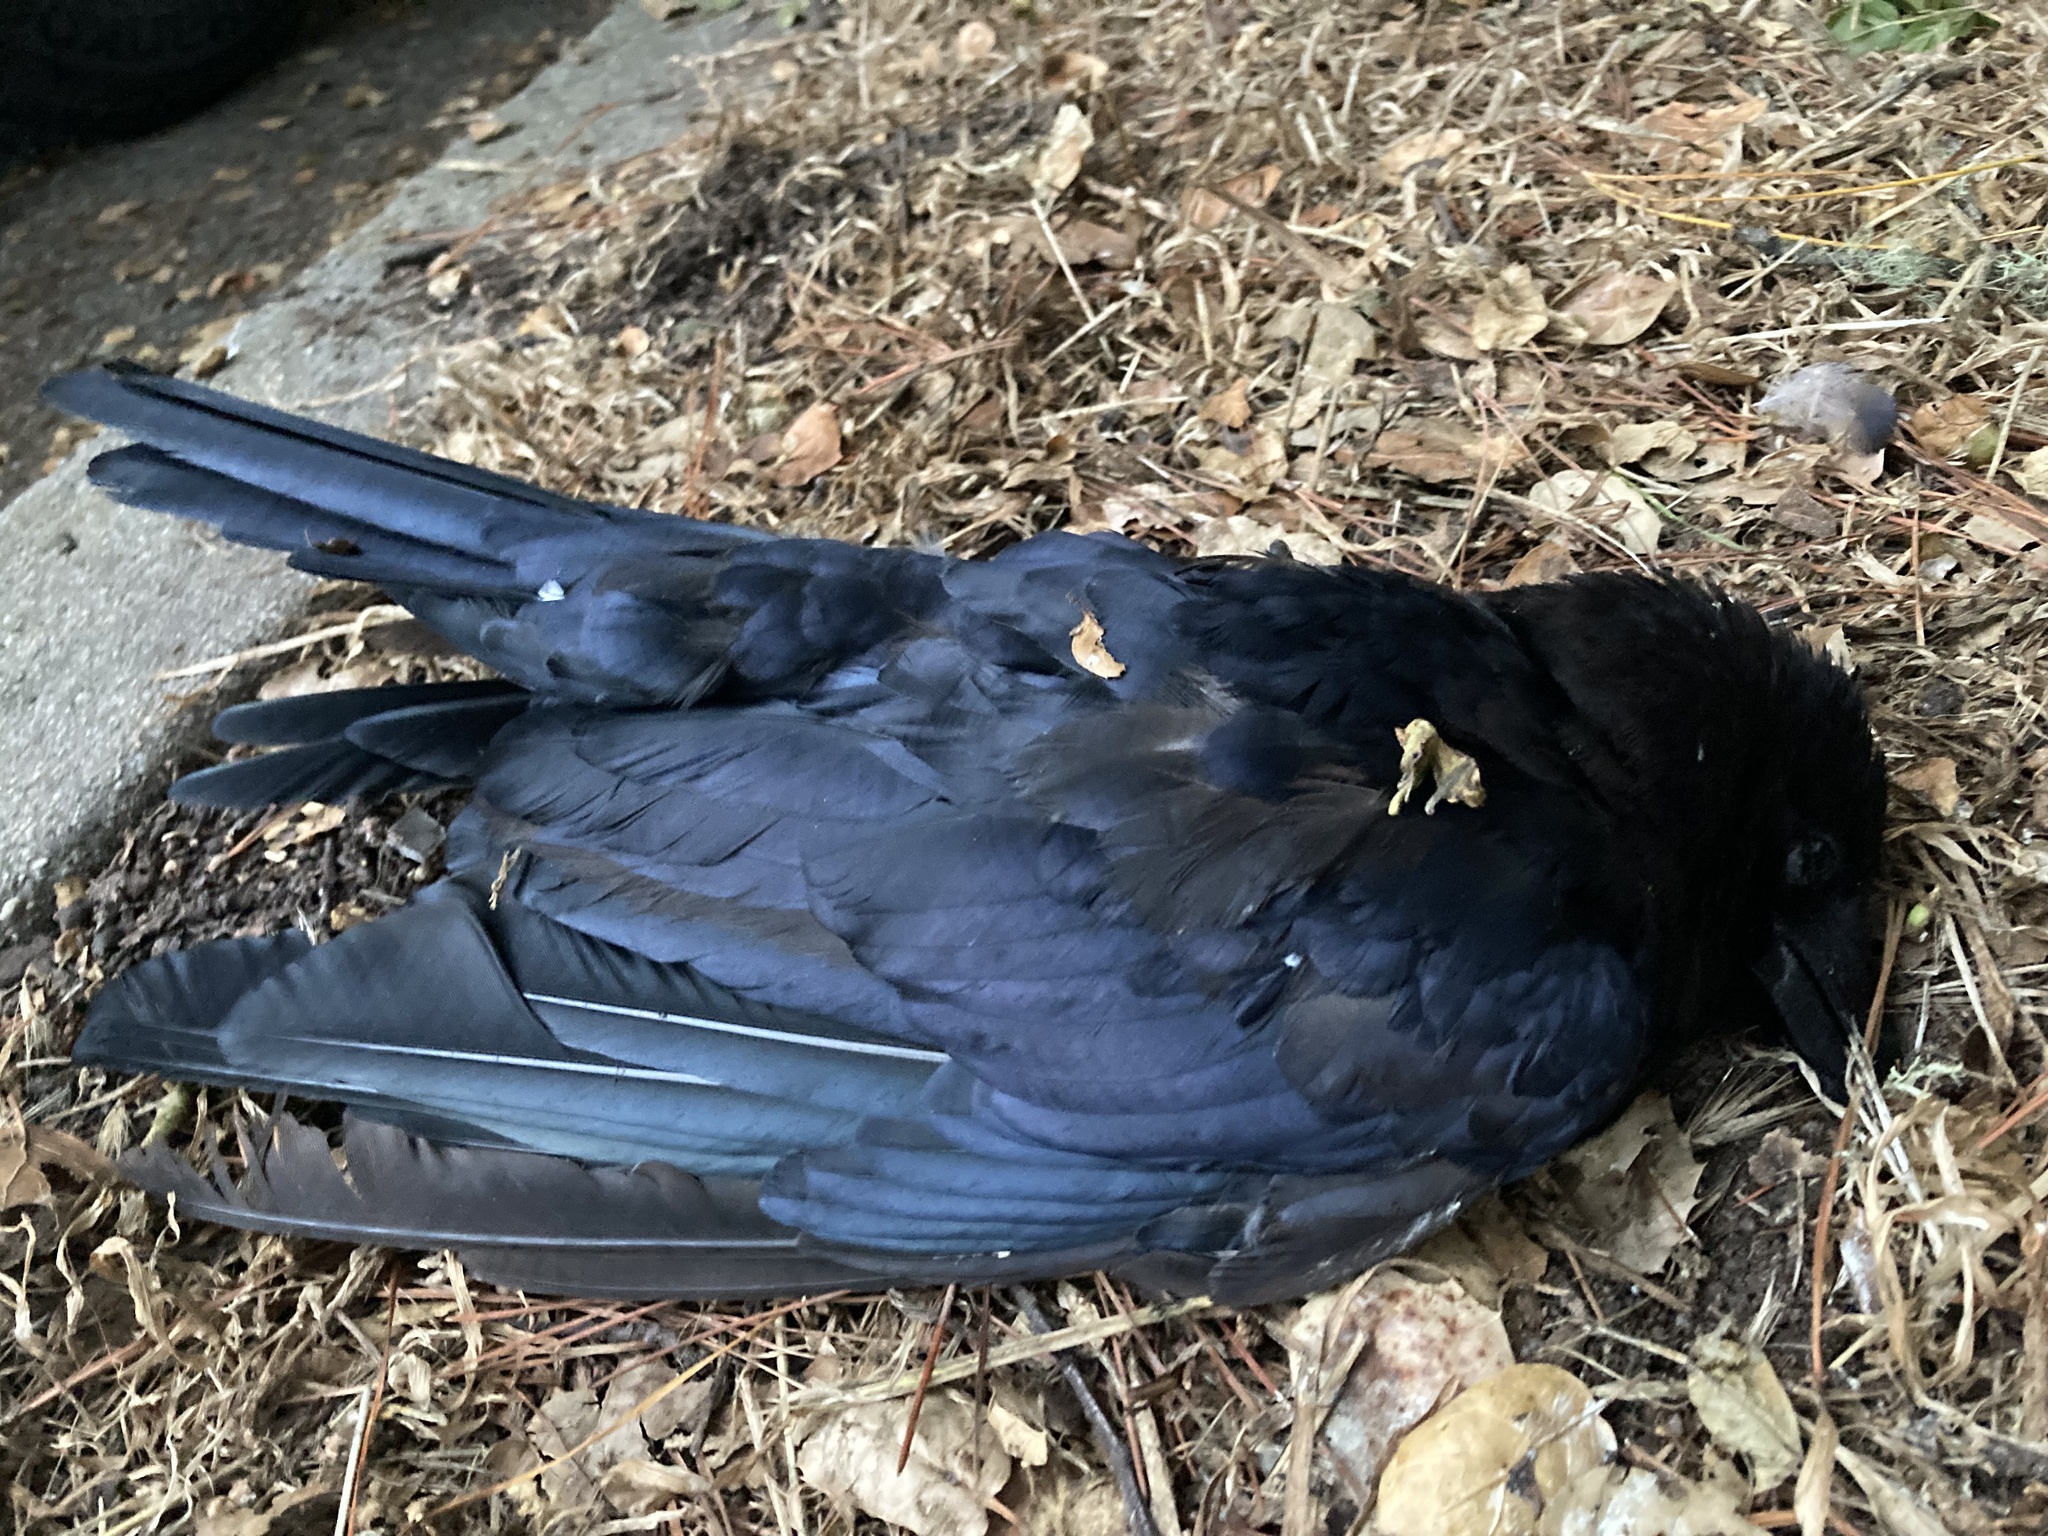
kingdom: Animalia
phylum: Chordata
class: Aves
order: Passeriformes
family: Corvidae
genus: Corvus
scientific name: Corvus brachyrhynchos
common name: American crow
